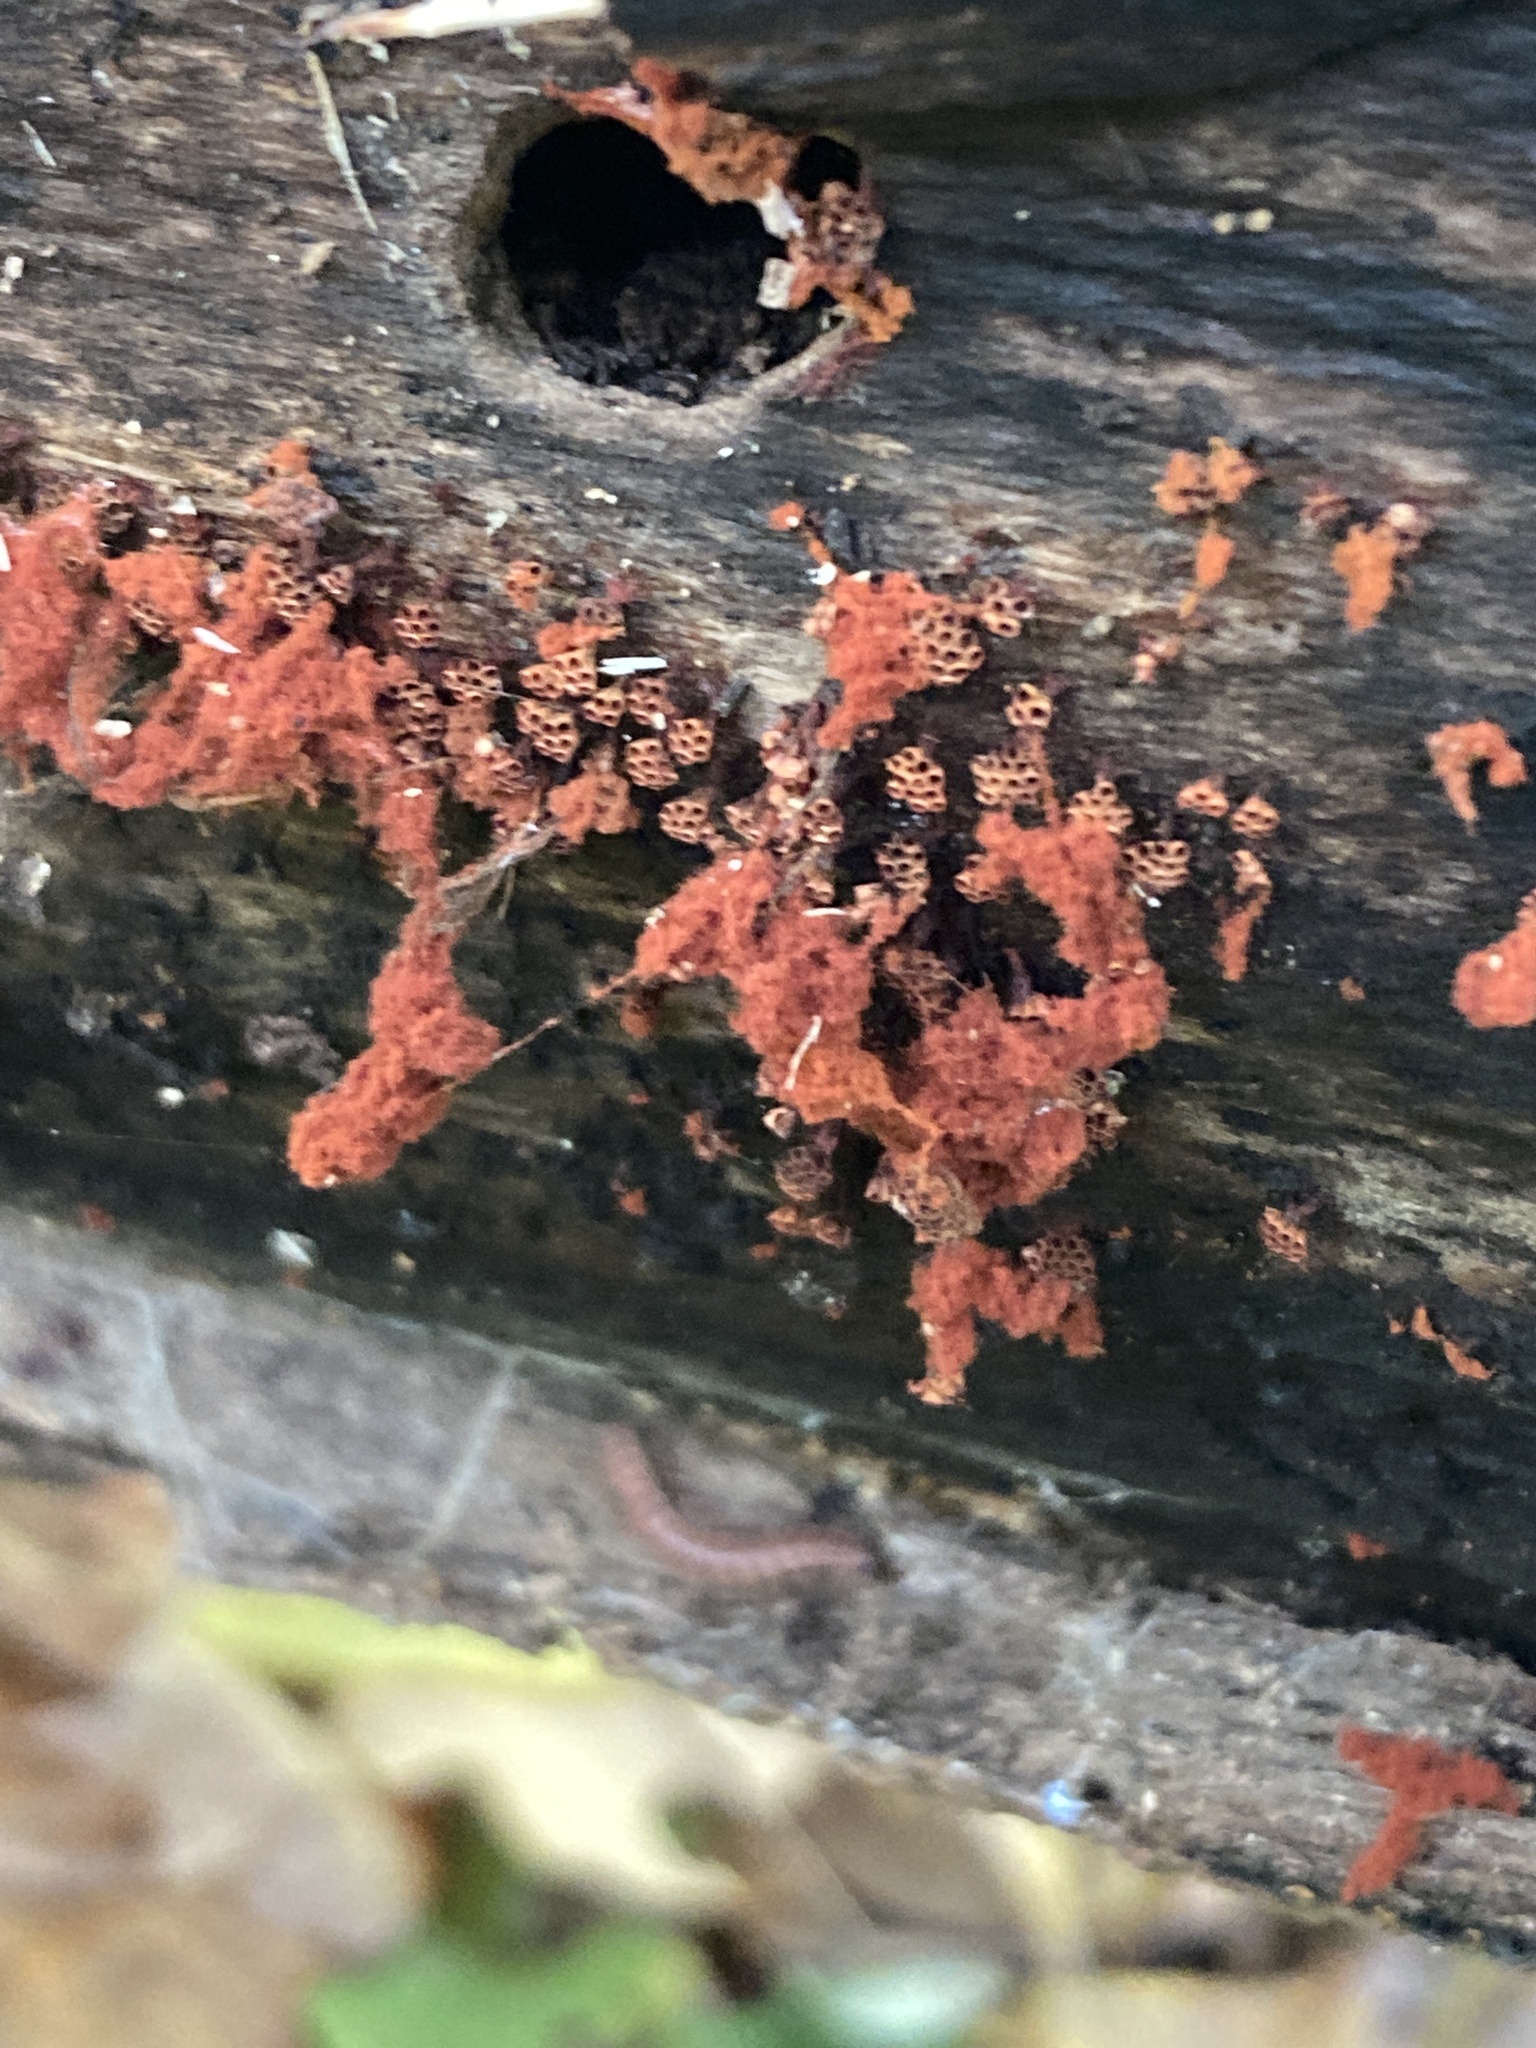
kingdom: Protozoa
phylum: Mycetozoa
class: Myxomycetes
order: Trichiales
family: Trichiaceae
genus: Metatrichia
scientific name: Metatrichia vesparia
